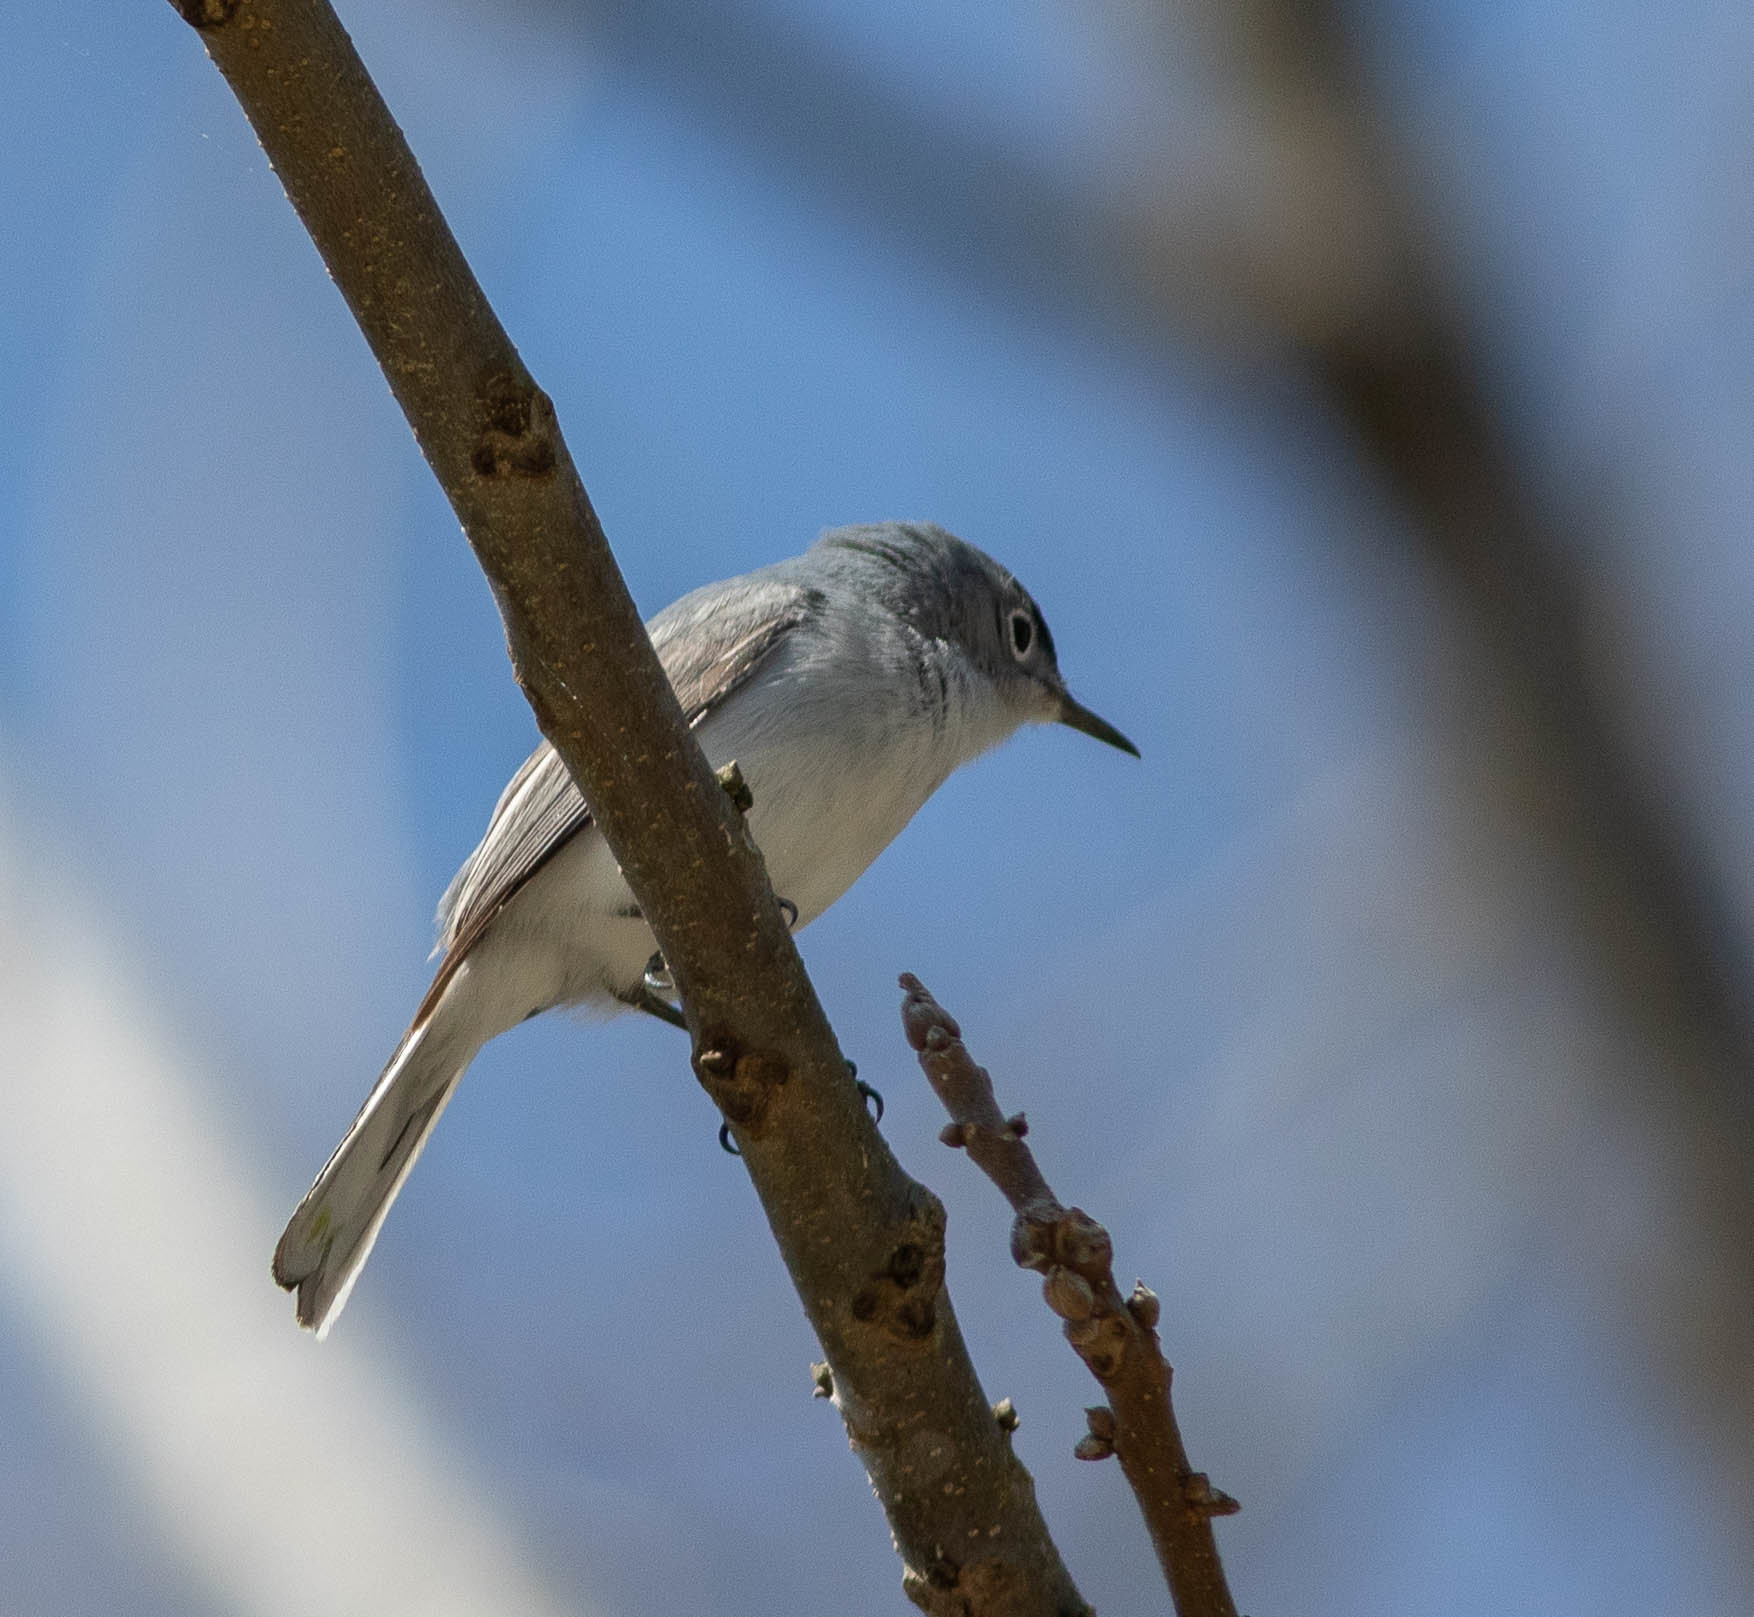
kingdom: Animalia
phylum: Chordata
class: Aves
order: Passeriformes
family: Polioptilidae
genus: Polioptila
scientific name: Polioptila caerulea
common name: Blue-gray gnatcatcher
